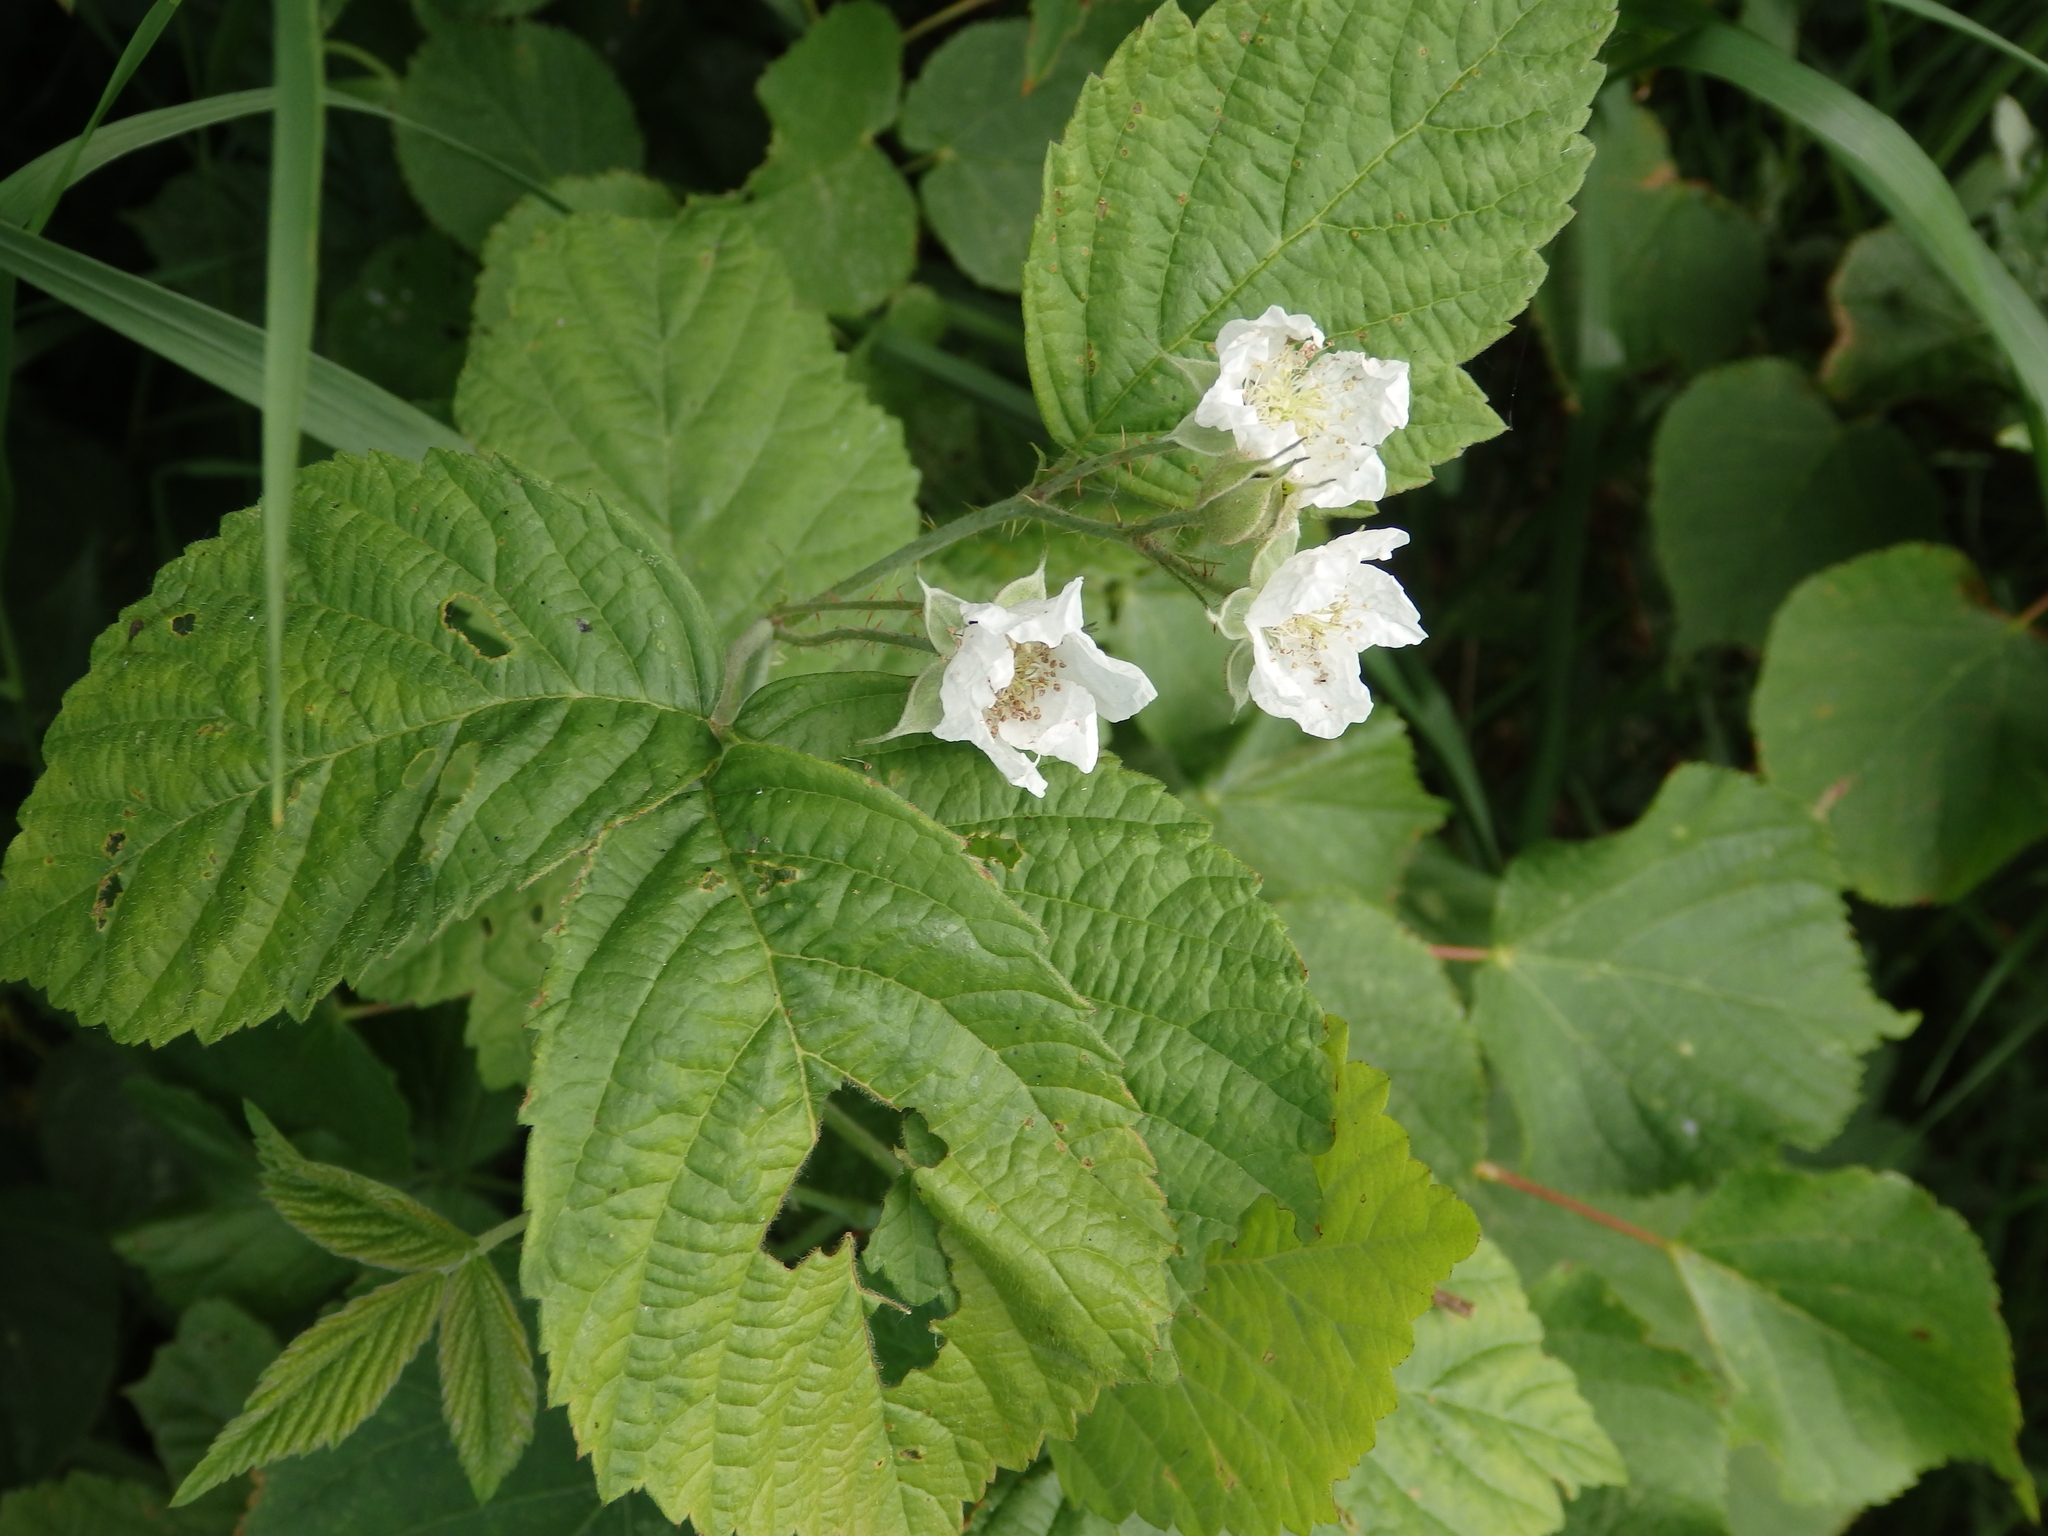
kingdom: Plantae
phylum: Tracheophyta
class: Magnoliopsida
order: Rosales
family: Rosaceae
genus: Rubus
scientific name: Rubus caesius
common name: Dewberry
